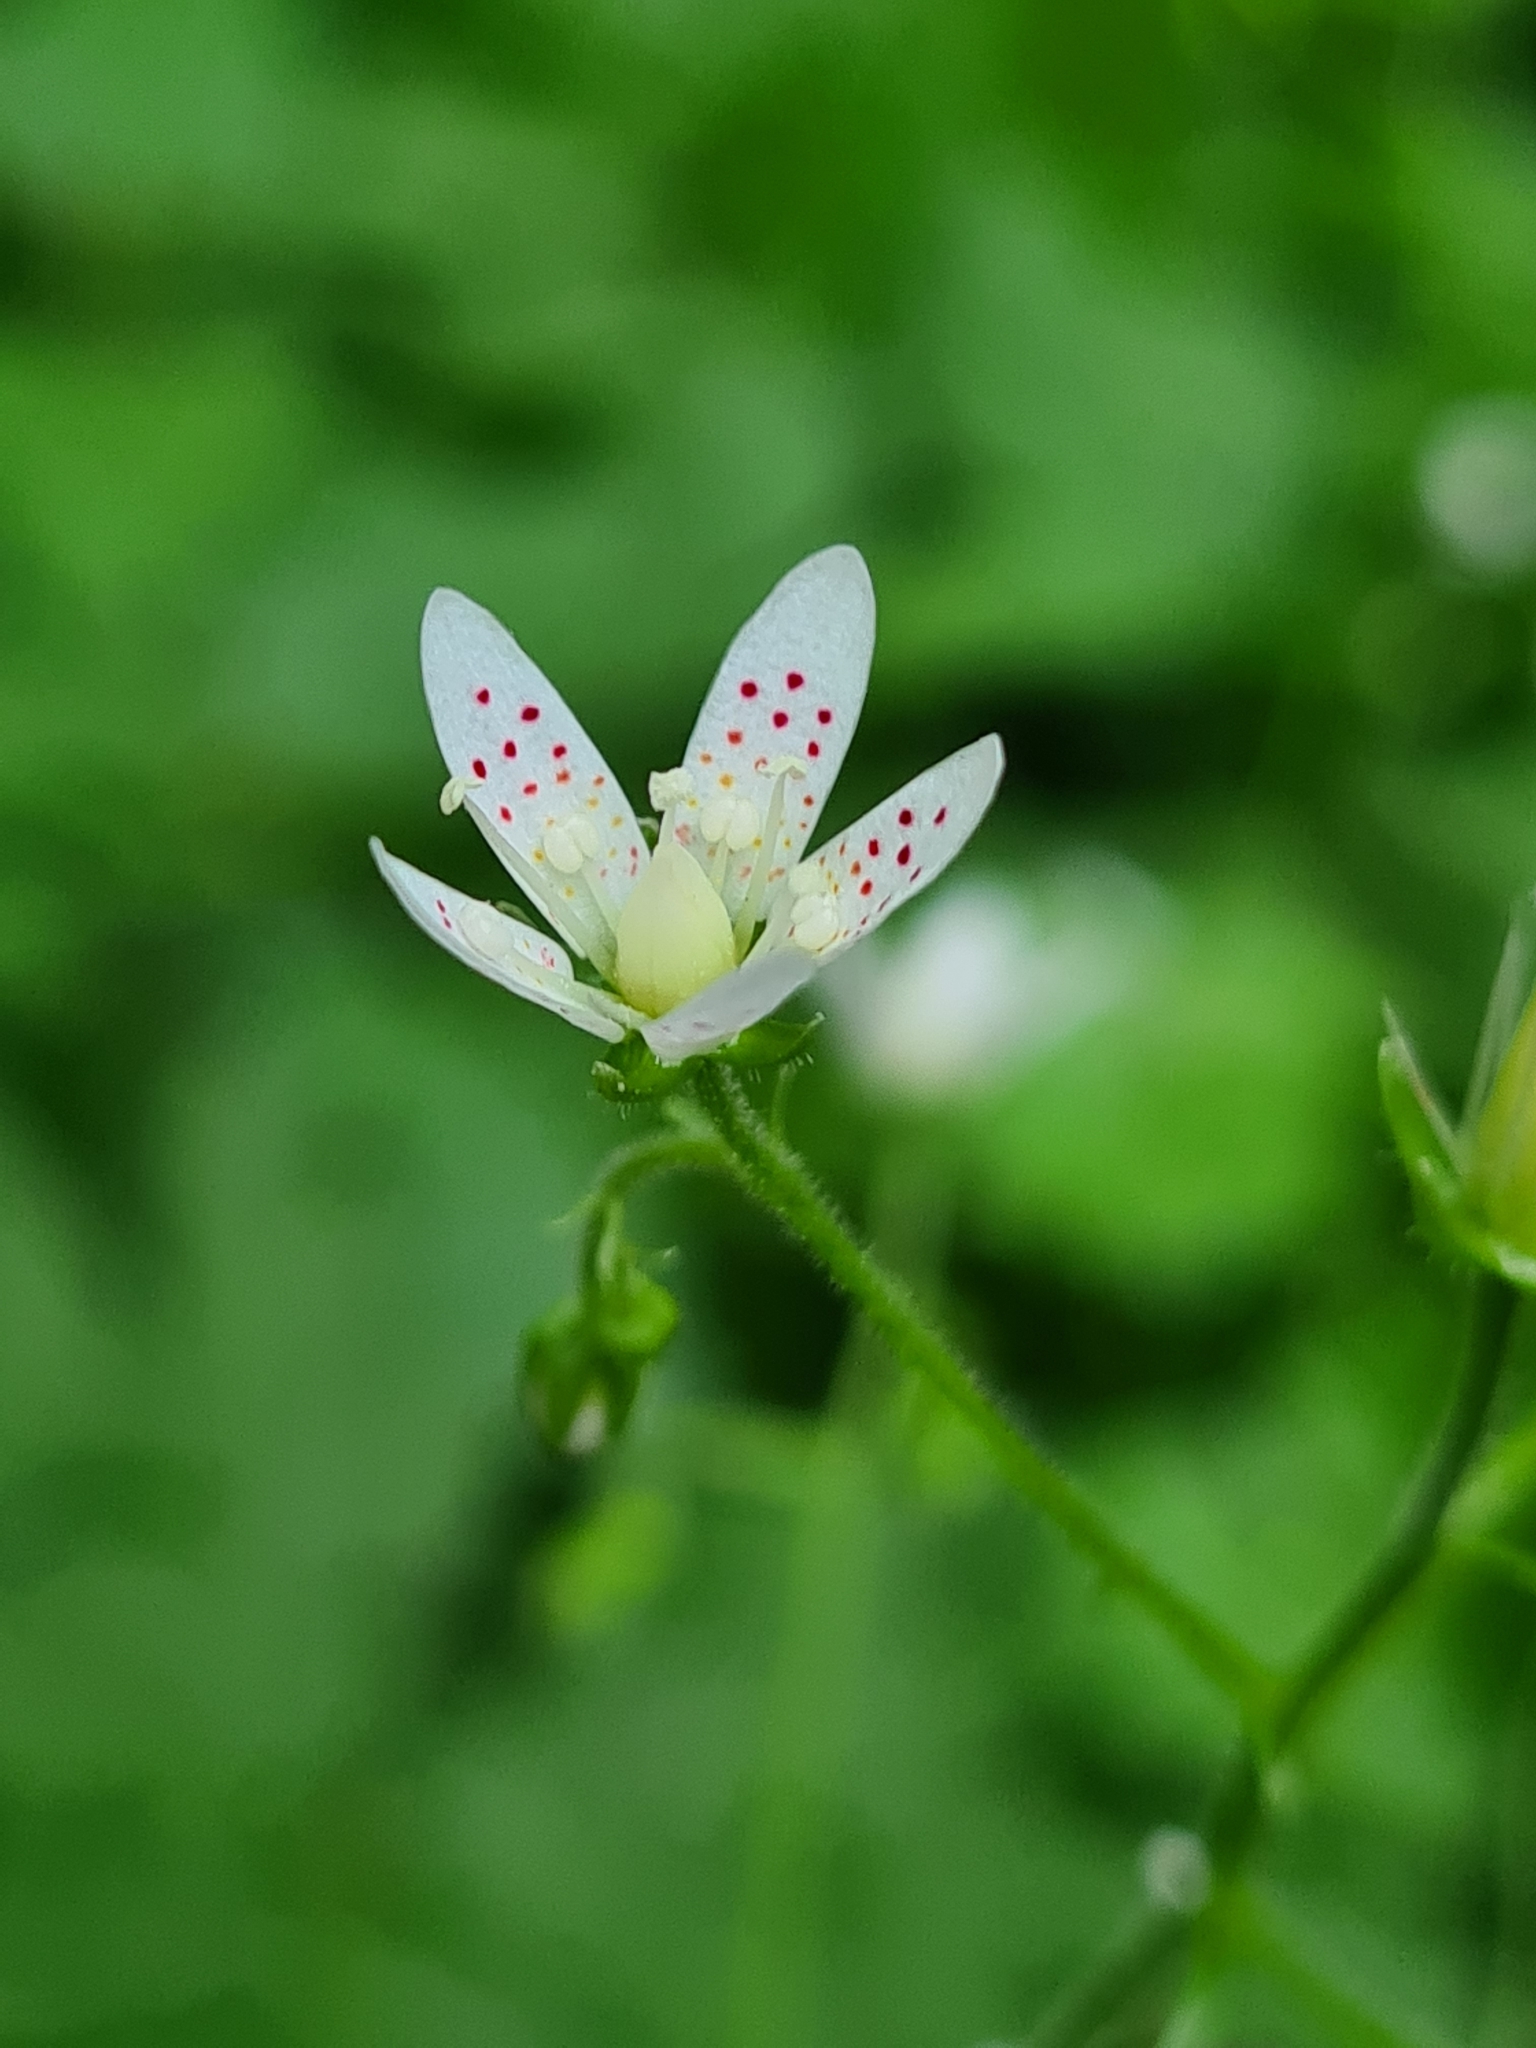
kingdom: Plantae
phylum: Tracheophyta
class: Magnoliopsida
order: Saxifragales
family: Saxifragaceae
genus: Saxifraga
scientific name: Saxifraga rotundifolia
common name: Round-leaved saxifrage
